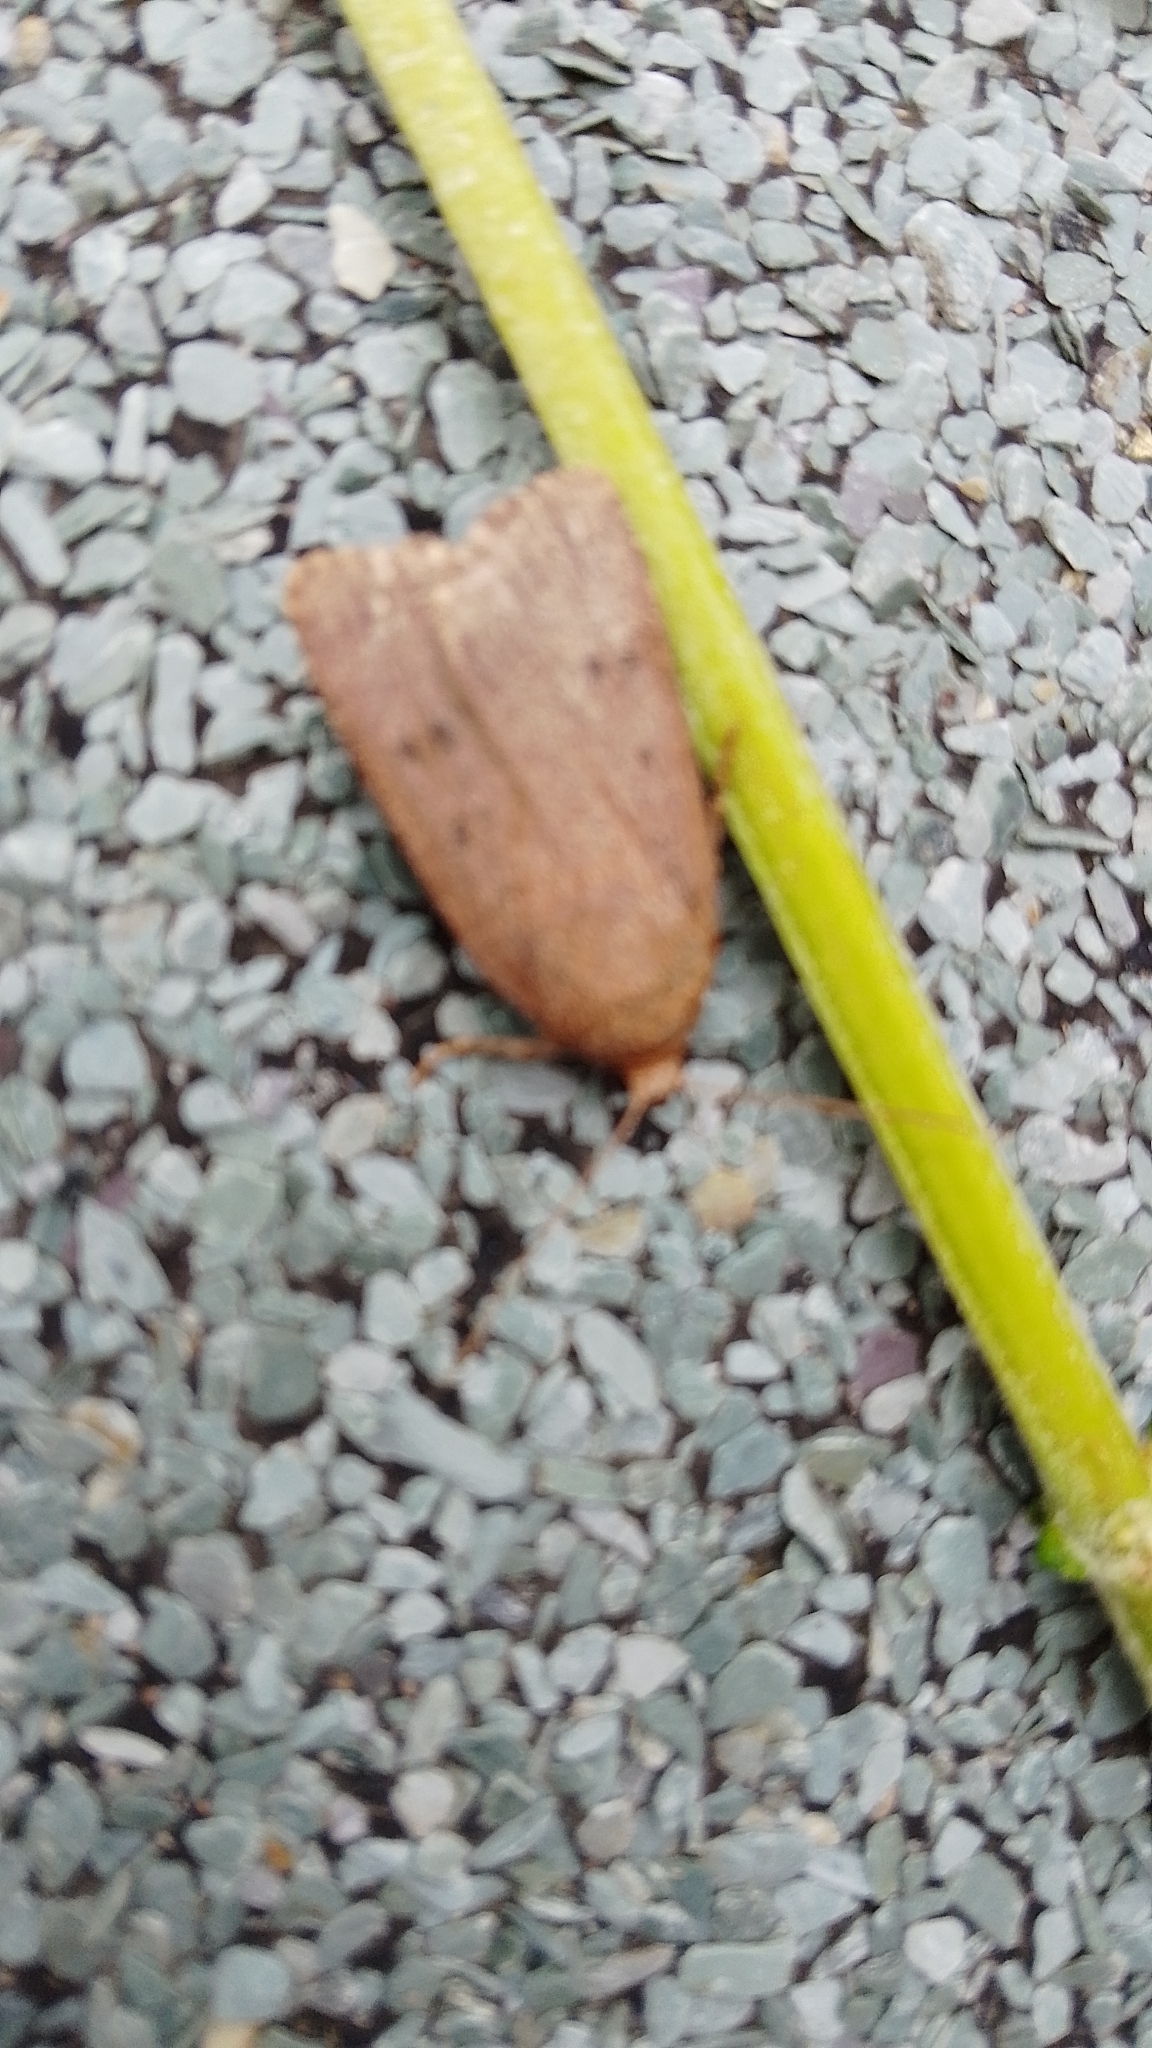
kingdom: Animalia
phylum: Arthropoda
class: Insecta
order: Lepidoptera
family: Noctuidae
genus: Amphipyra
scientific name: Amphipyra tragopoginis
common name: Mouse moth
